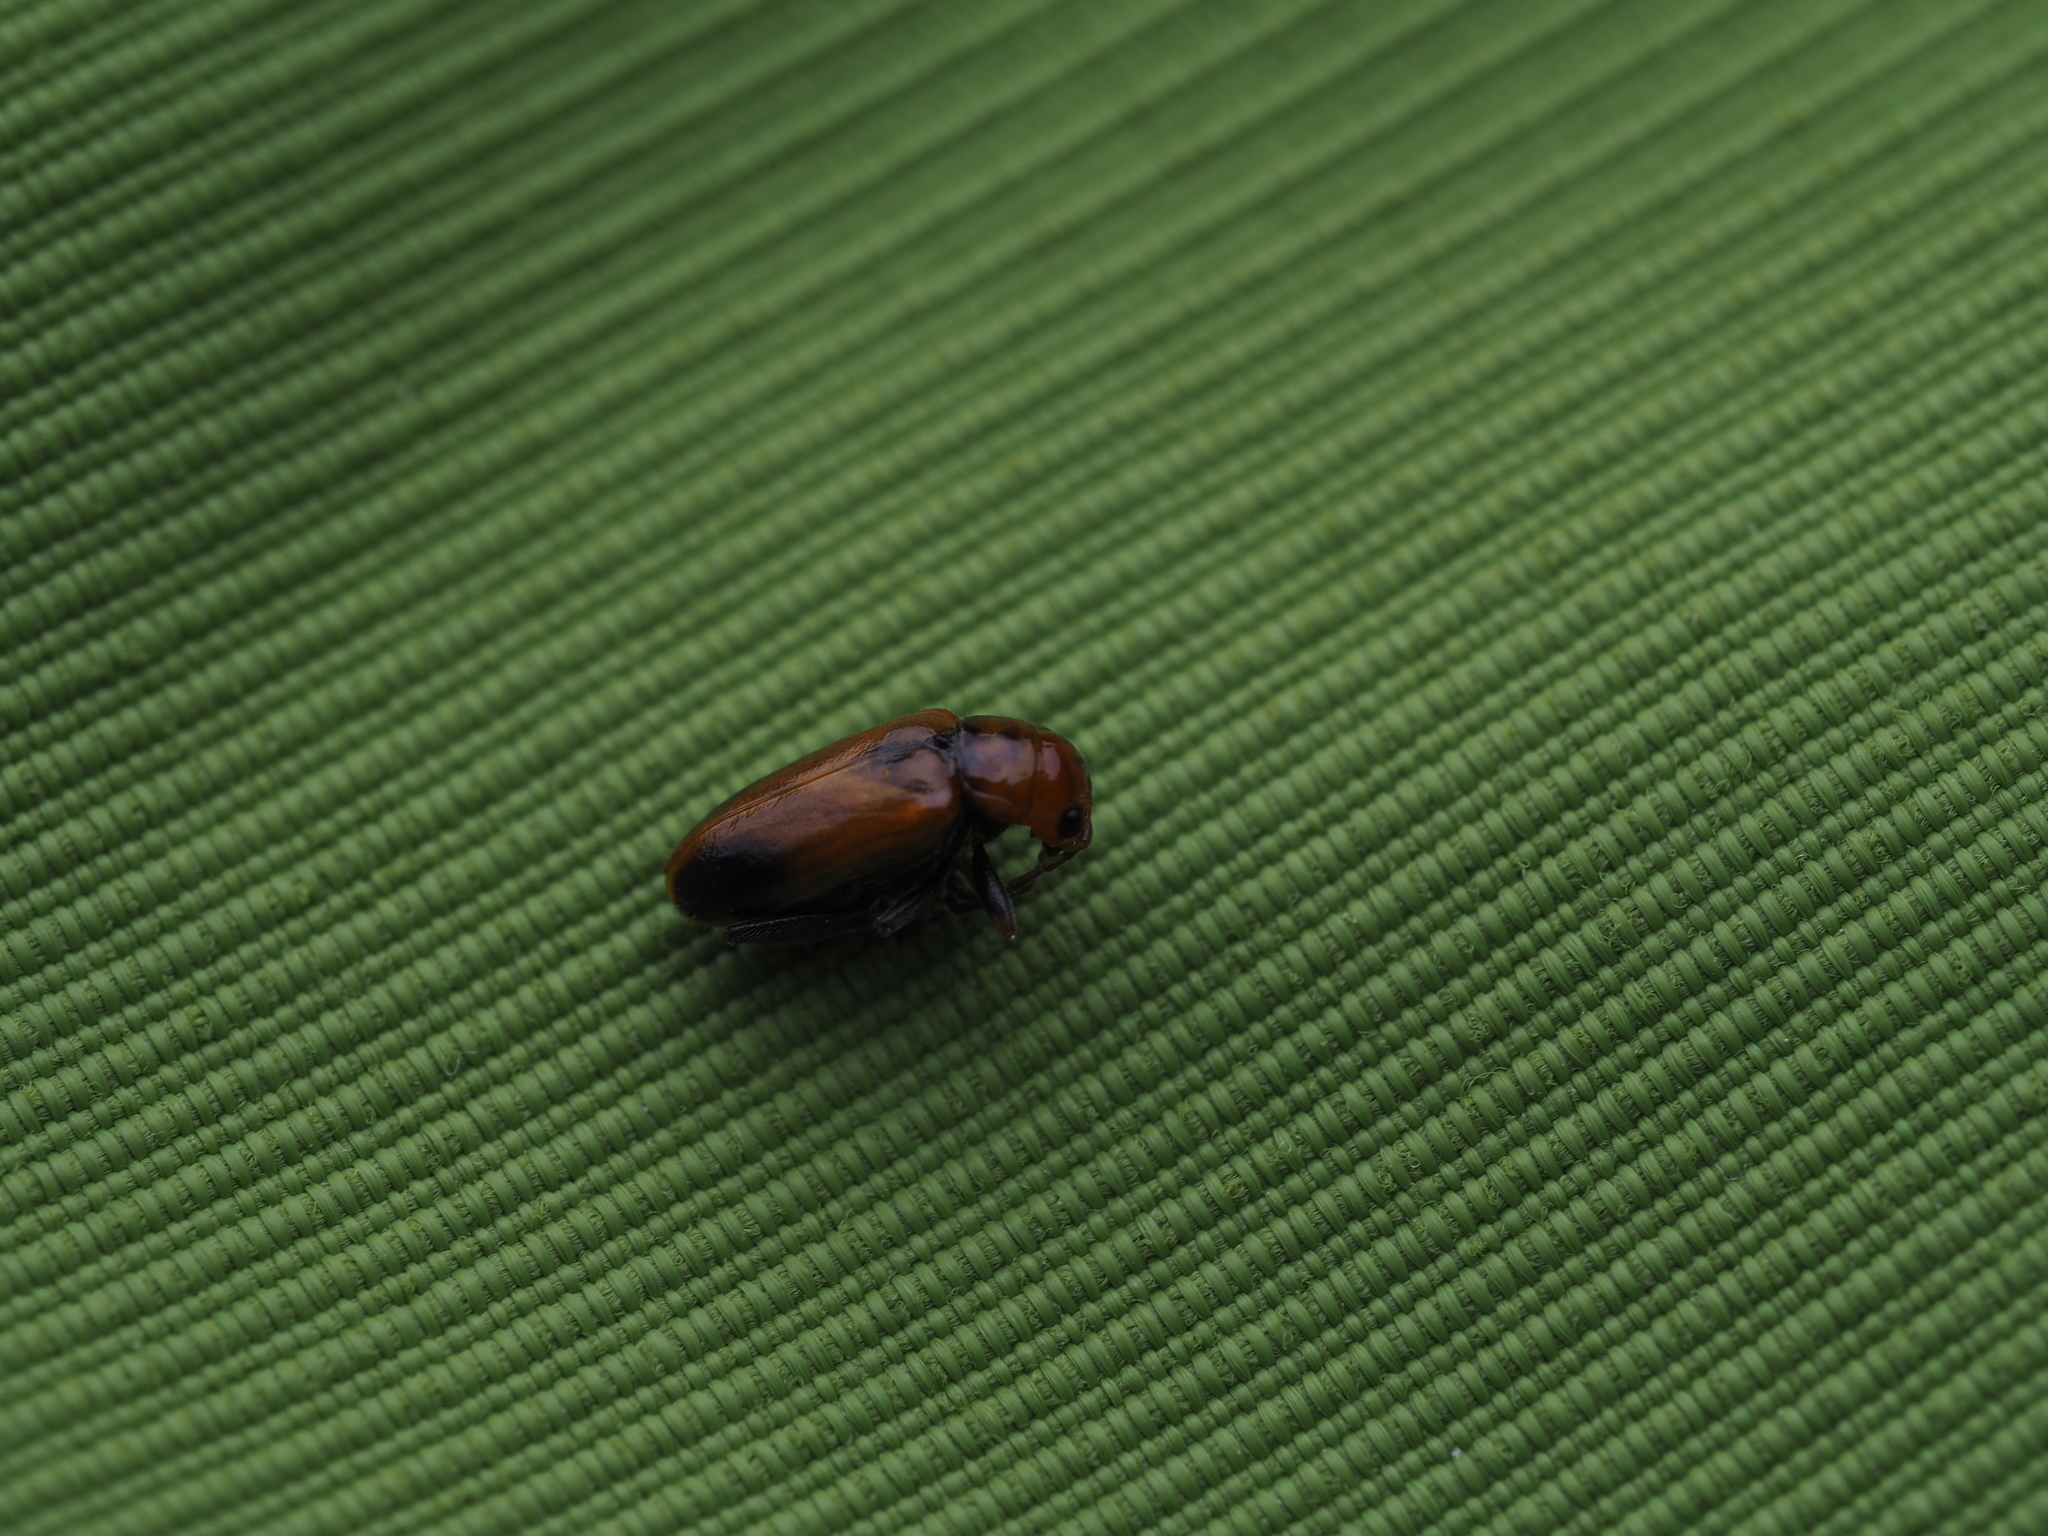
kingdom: Animalia
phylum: Arthropoda
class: Insecta
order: Coleoptera
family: Chrysomelidae
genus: Phyllobrotica
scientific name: Phyllobrotica adusta
